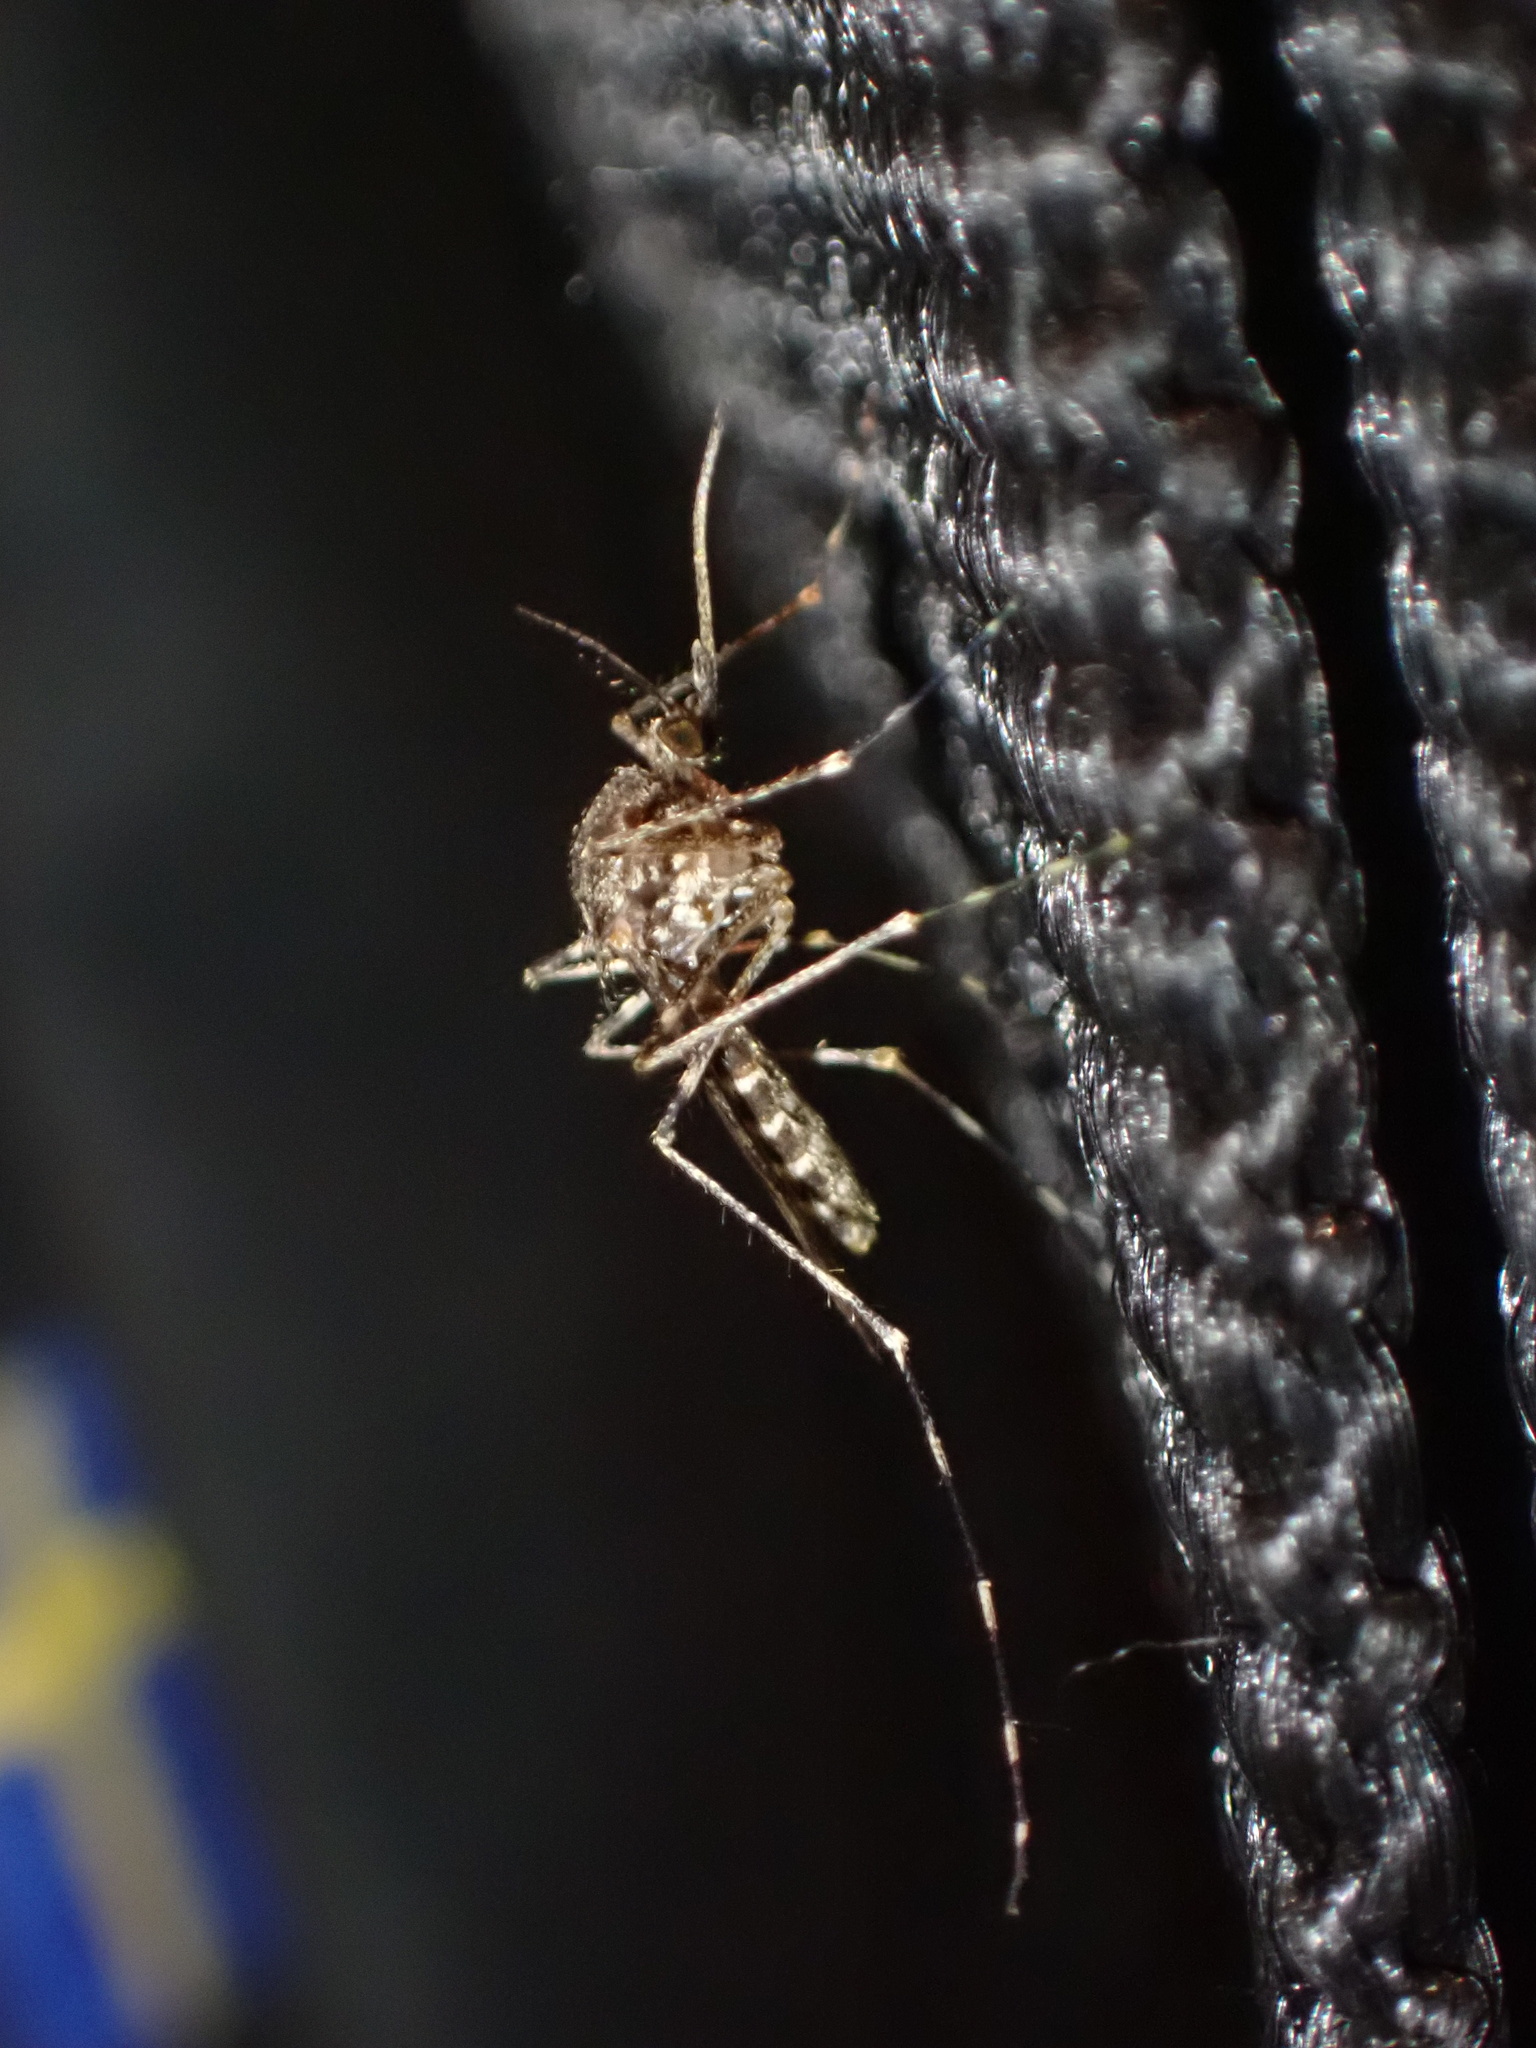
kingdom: Animalia
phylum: Arthropoda
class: Insecta
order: Diptera
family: Culicidae
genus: Culiseta
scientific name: Culiseta annulata
